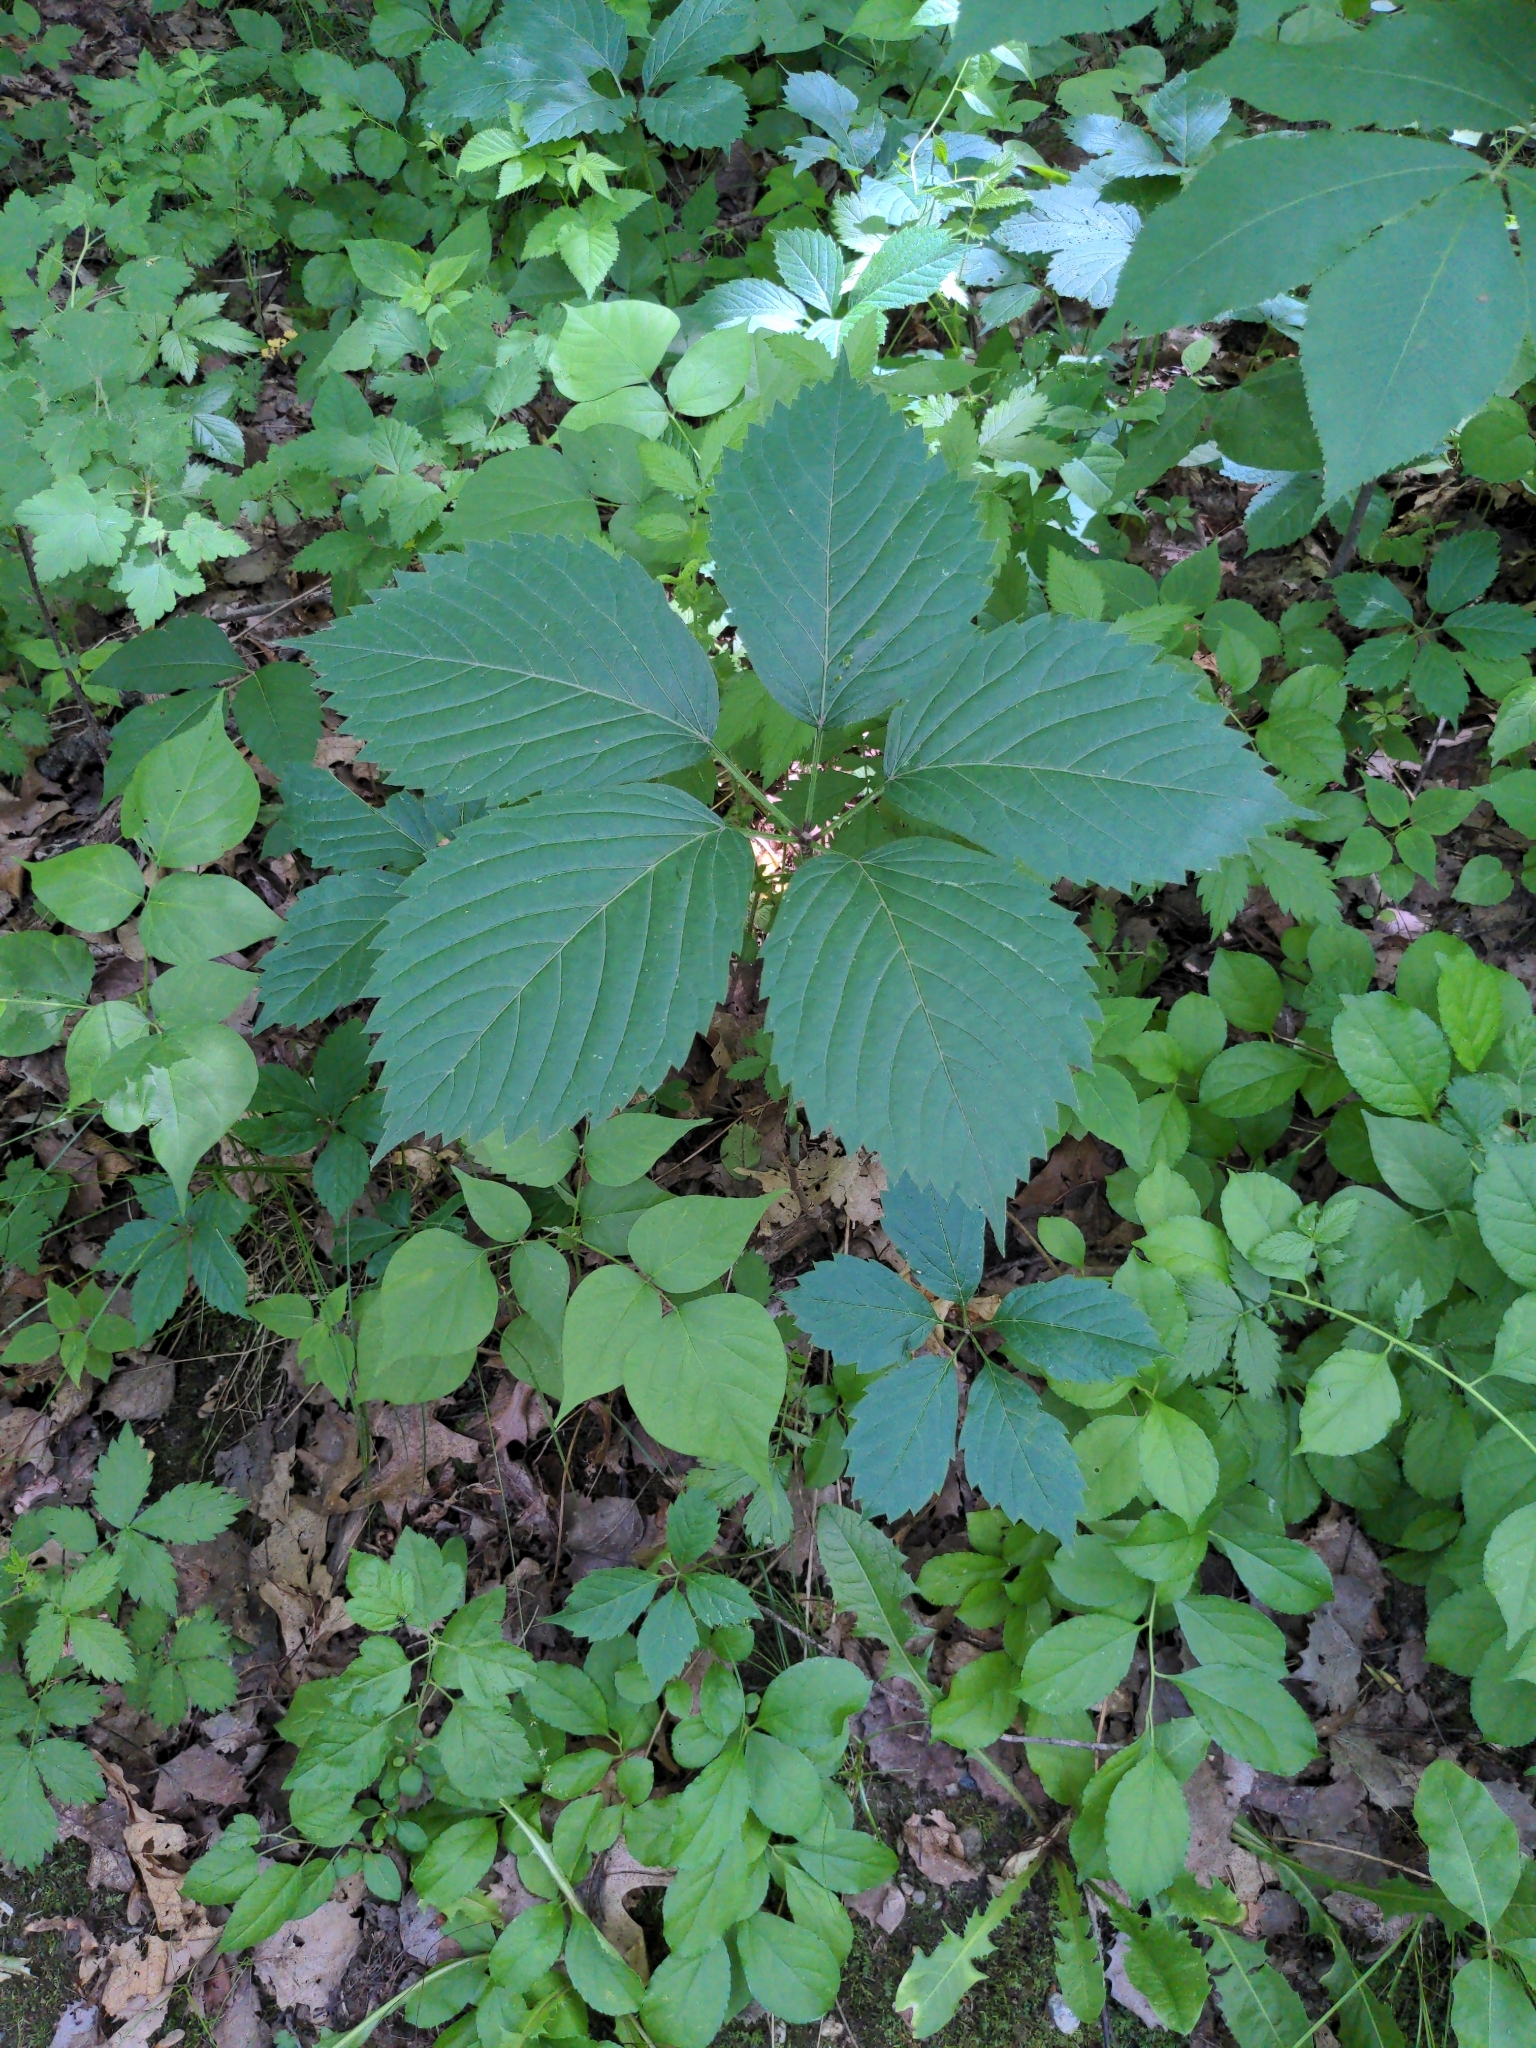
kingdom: Plantae
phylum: Tracheophyta
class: Magnoliopsida
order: Vitales
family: Vitaceae
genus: Parthenocissus
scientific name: Parthenocissus inserta
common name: False virginia-creeper
